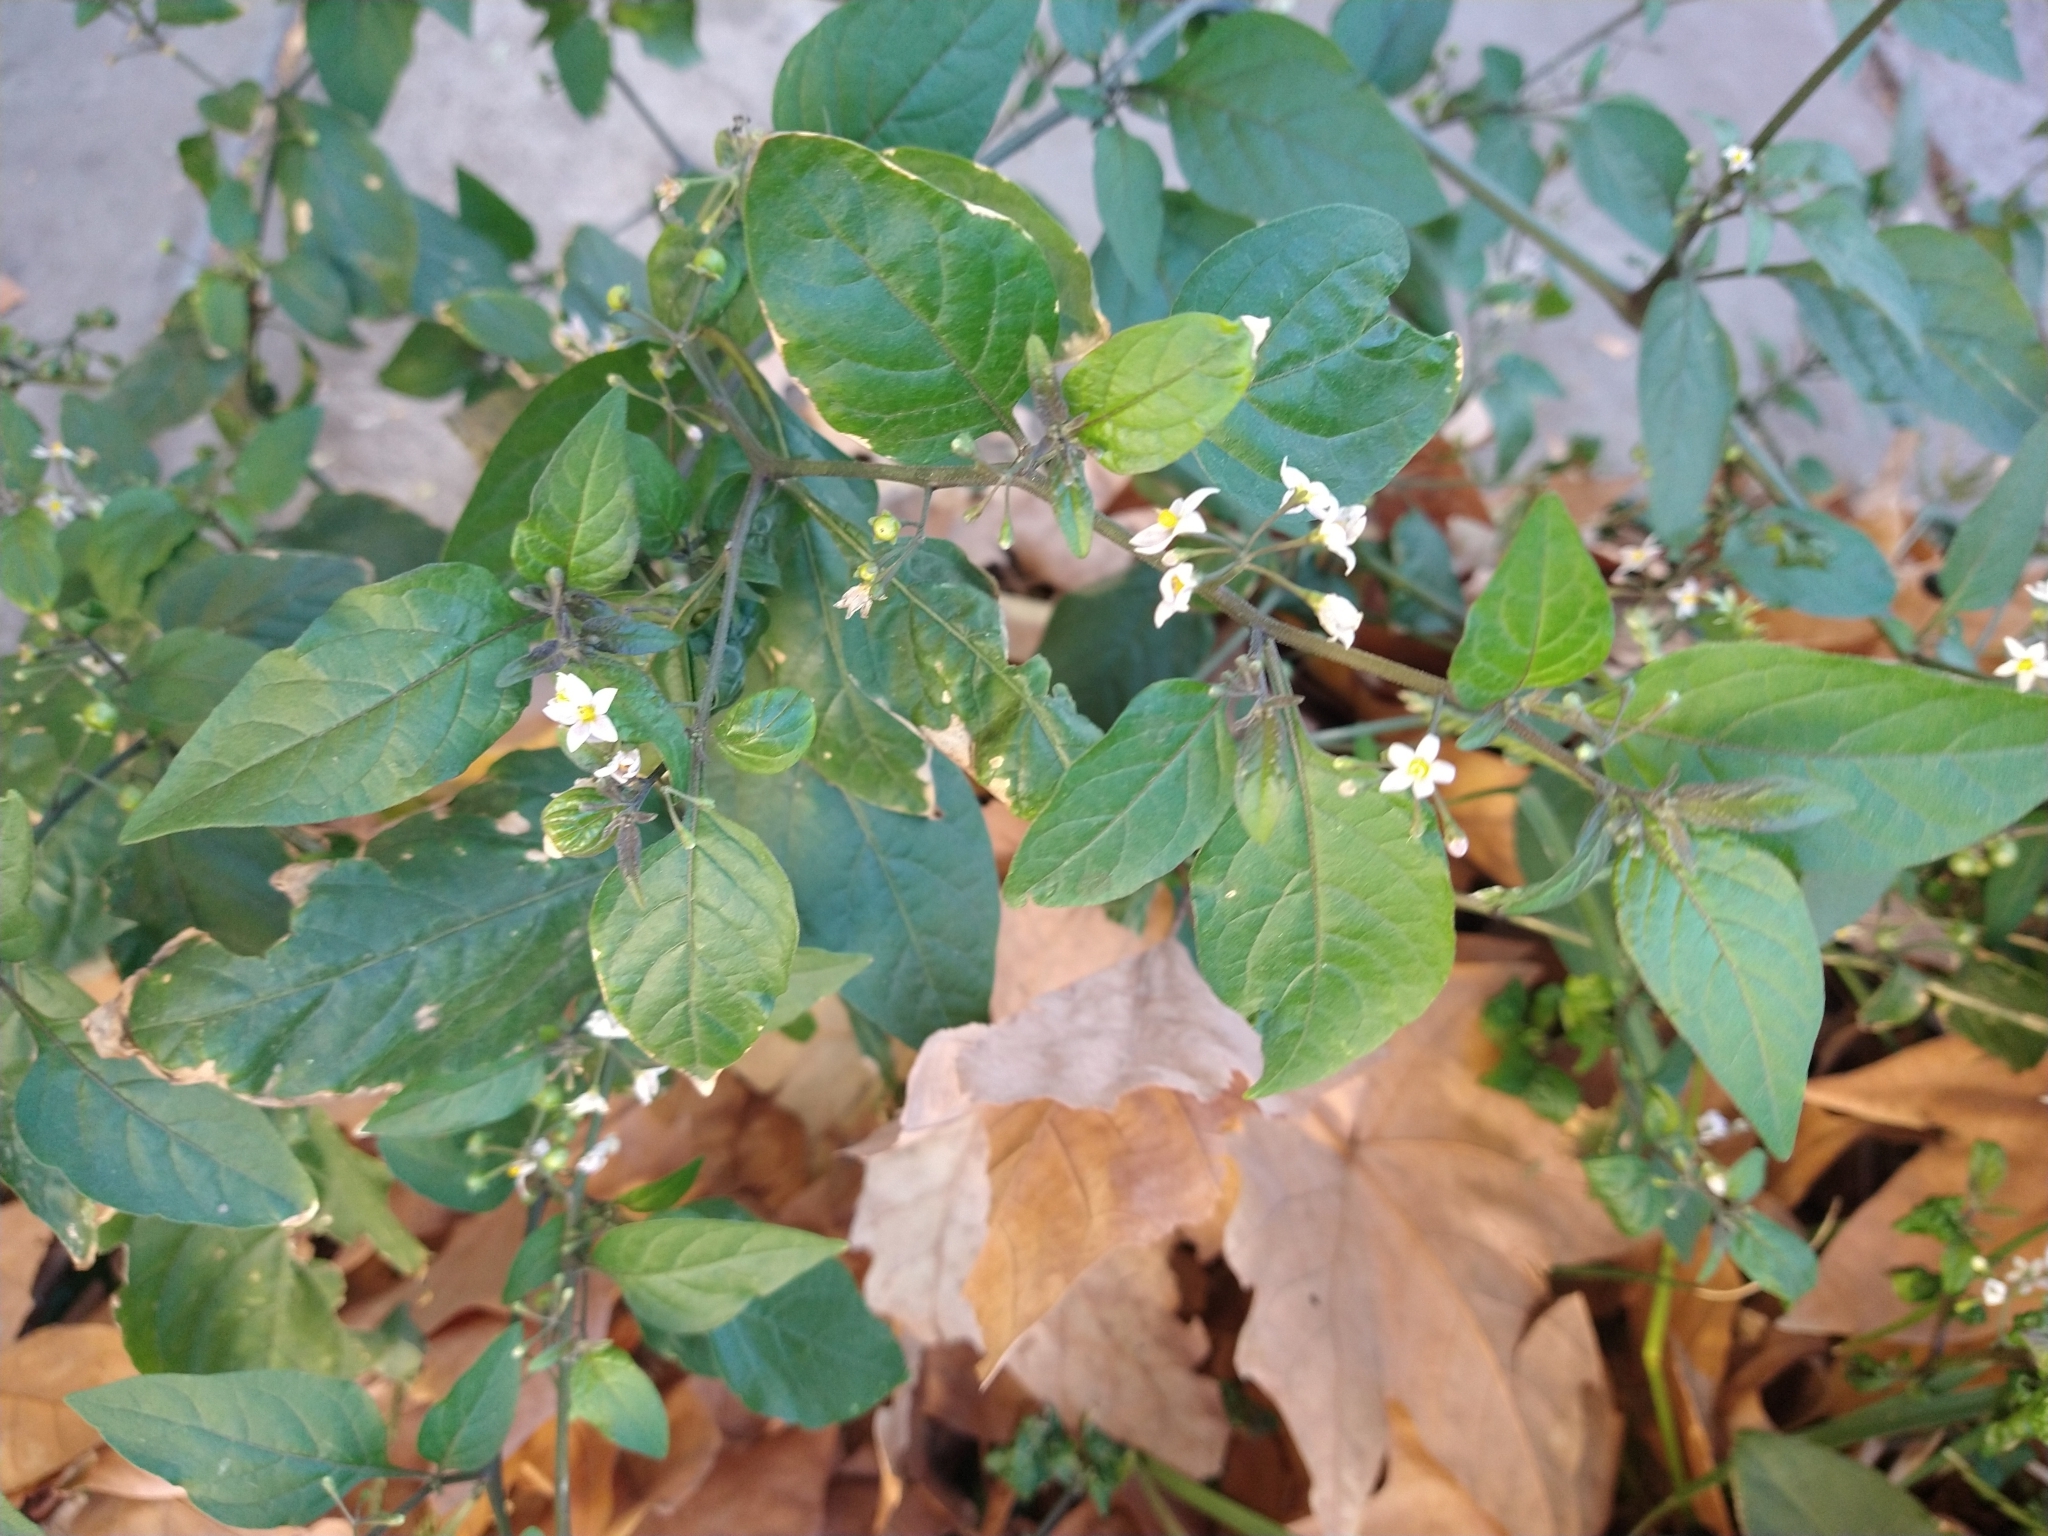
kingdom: Plantae
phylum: Tracheophyta
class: Magnoliopsida
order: Solanales
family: Solanaceae
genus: Solanum
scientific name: Solanum americanum
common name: American black nightshade
